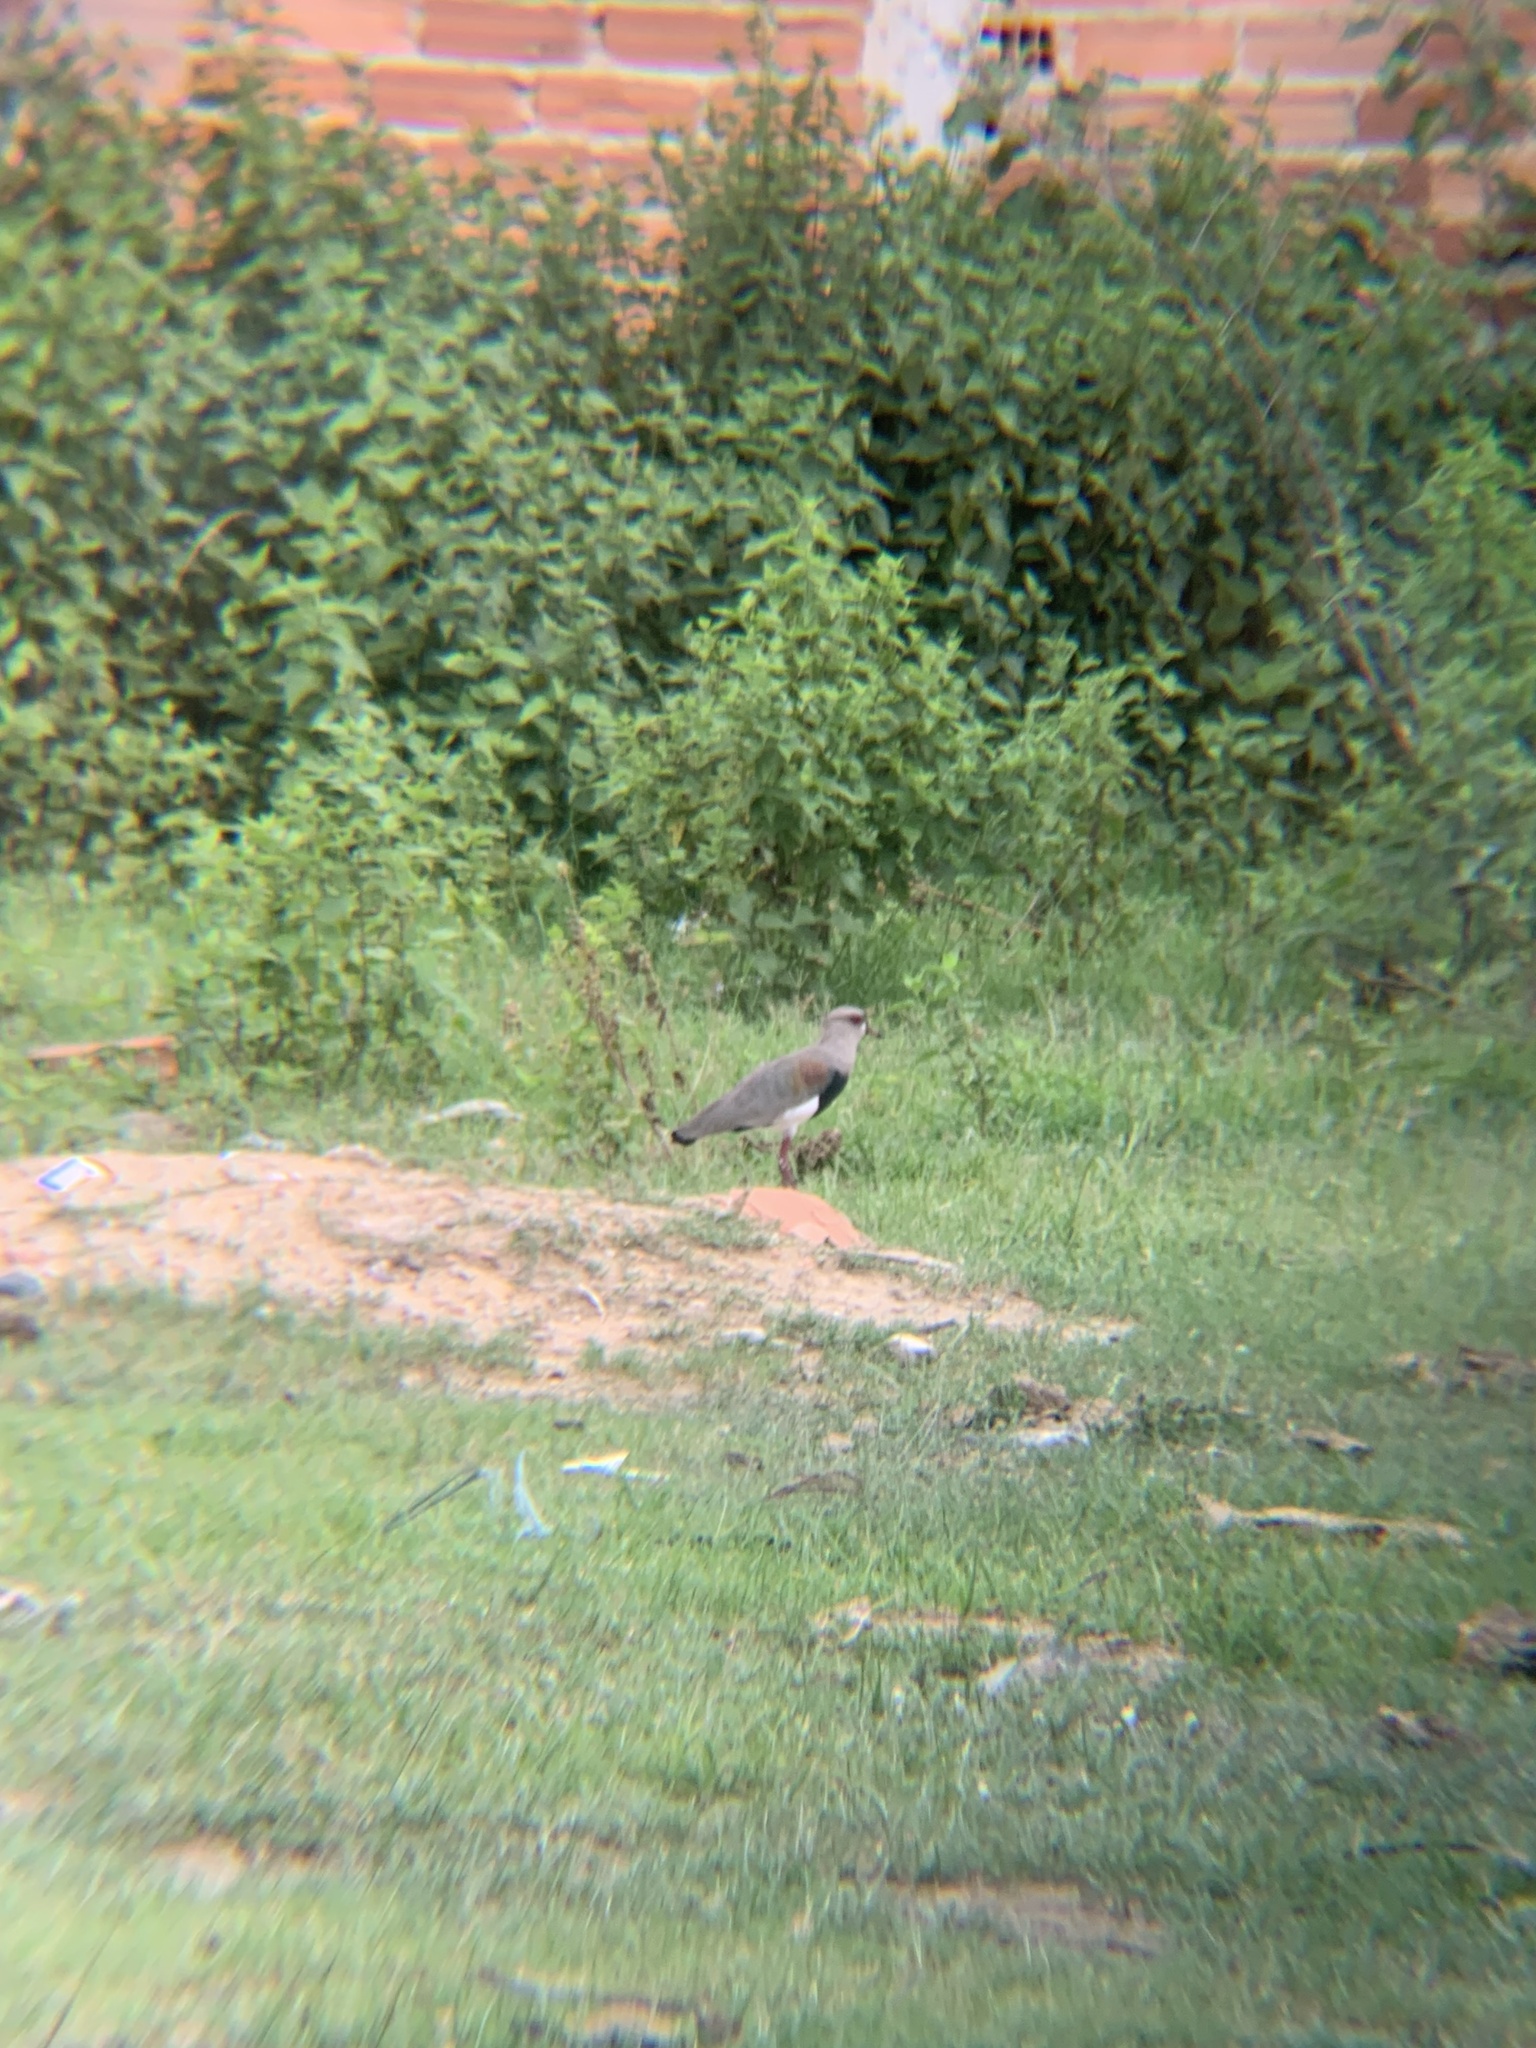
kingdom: Animalia
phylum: Chordata
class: Aves
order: Charadriiformes
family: Charadriidae
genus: Vanellus
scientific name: Vanellus chilensis
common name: Southern lapwing
